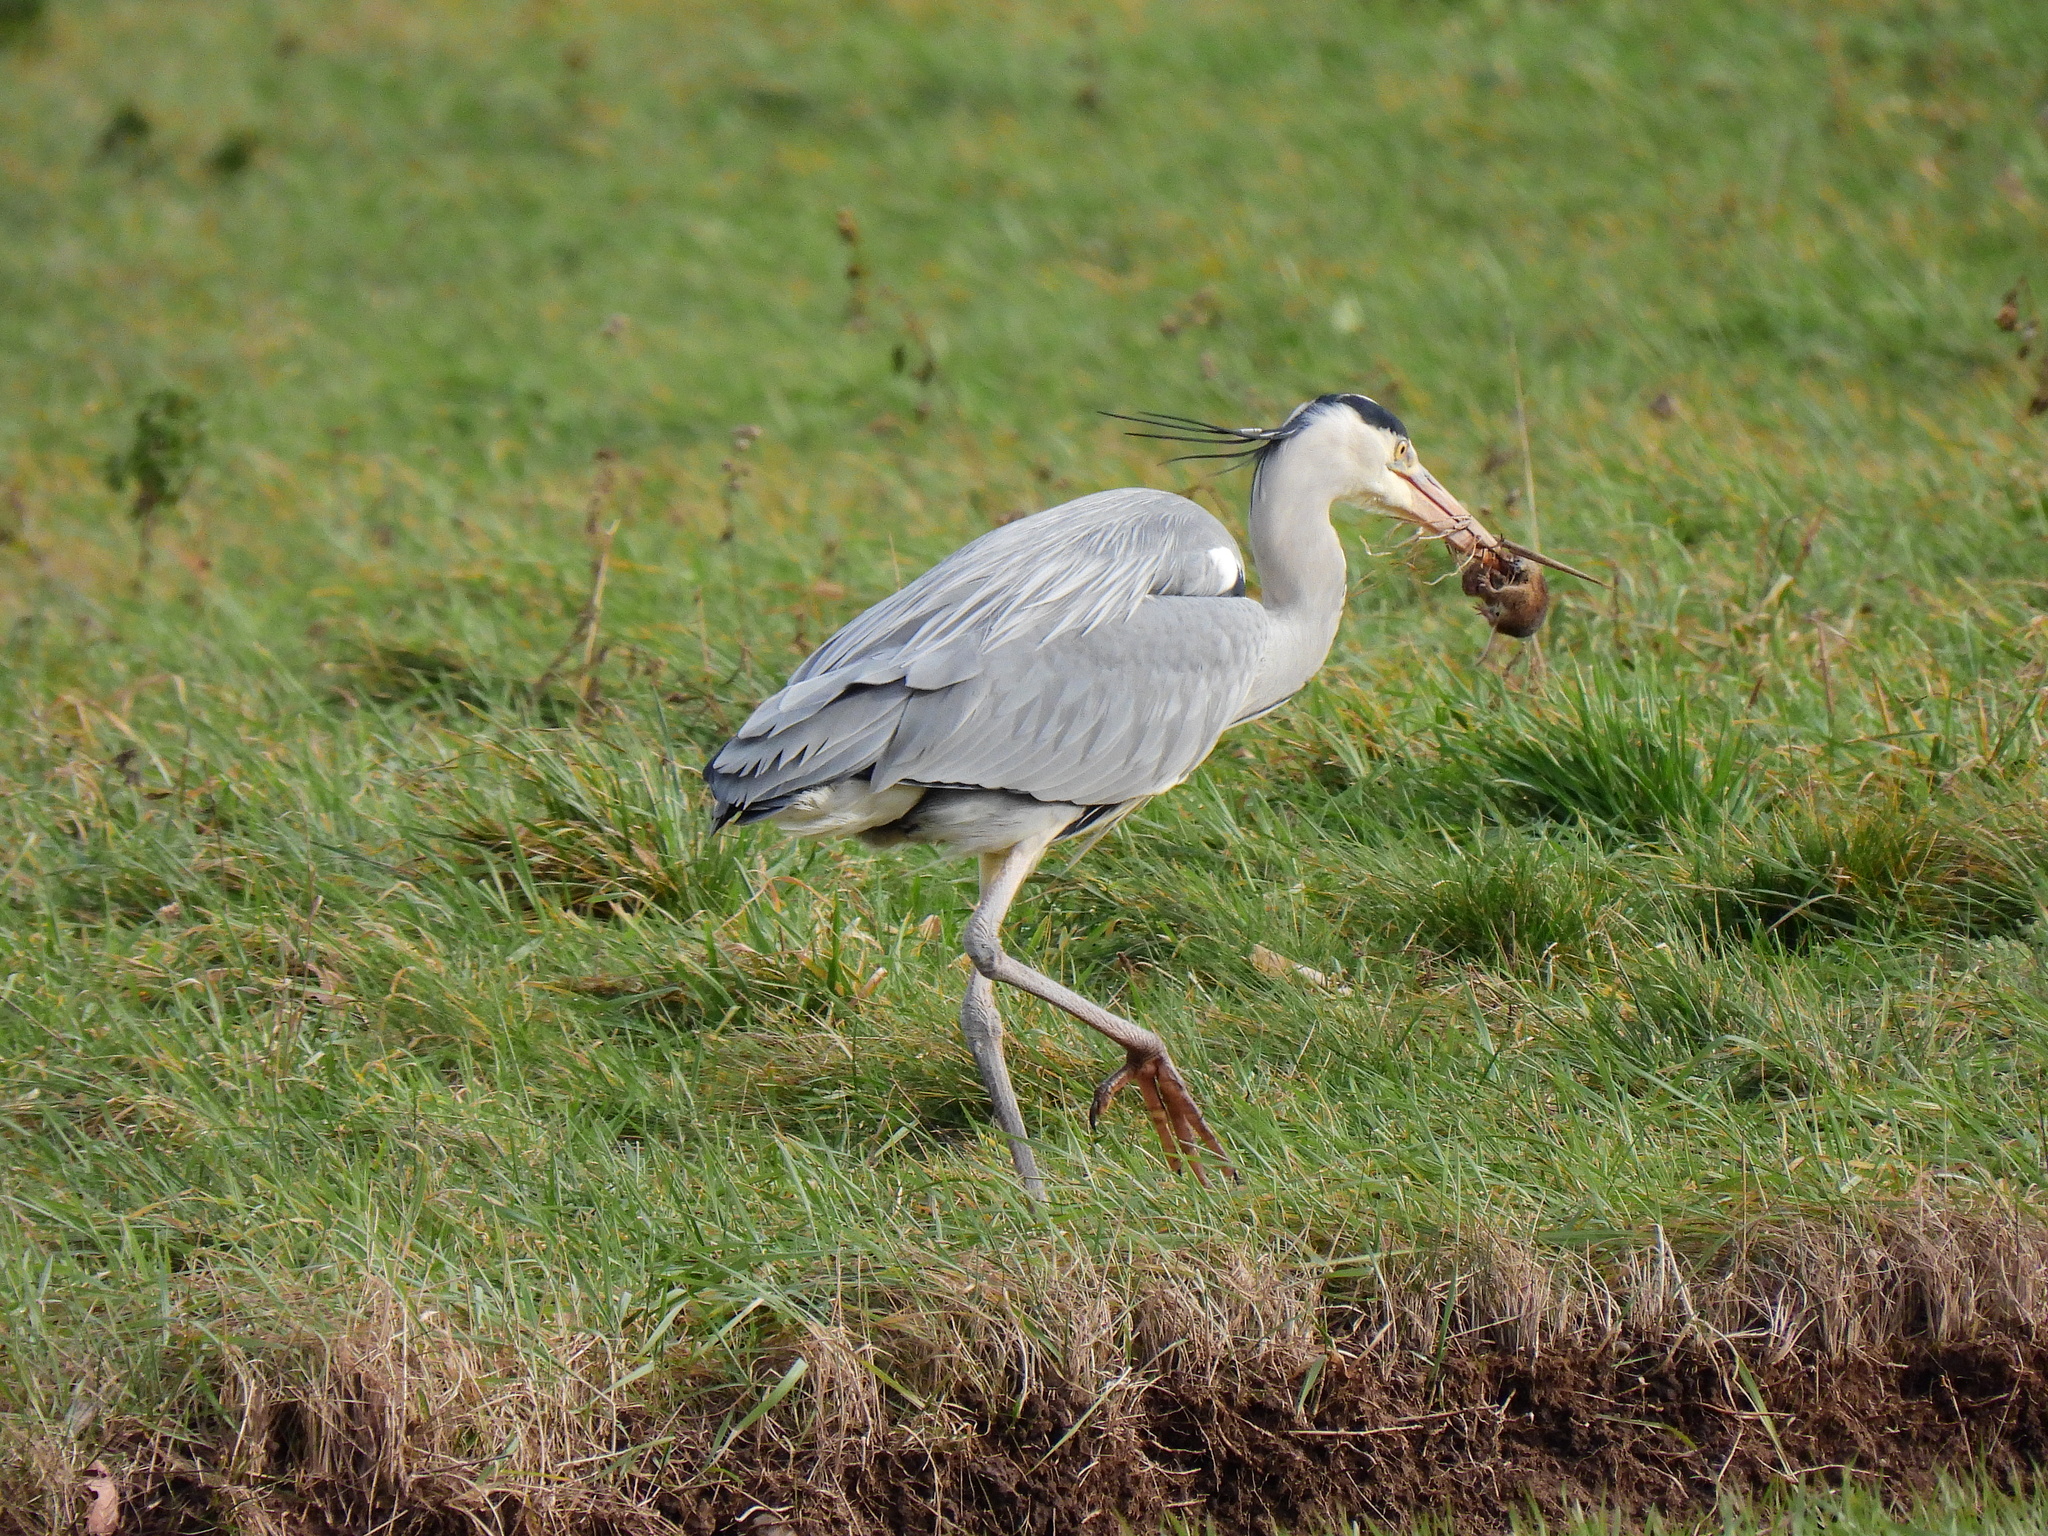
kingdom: Animalia
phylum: Chordata
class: Aves
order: Pelecaniformes
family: Ardeidae
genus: Ardea
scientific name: Ardea cinerea
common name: Grey heron
